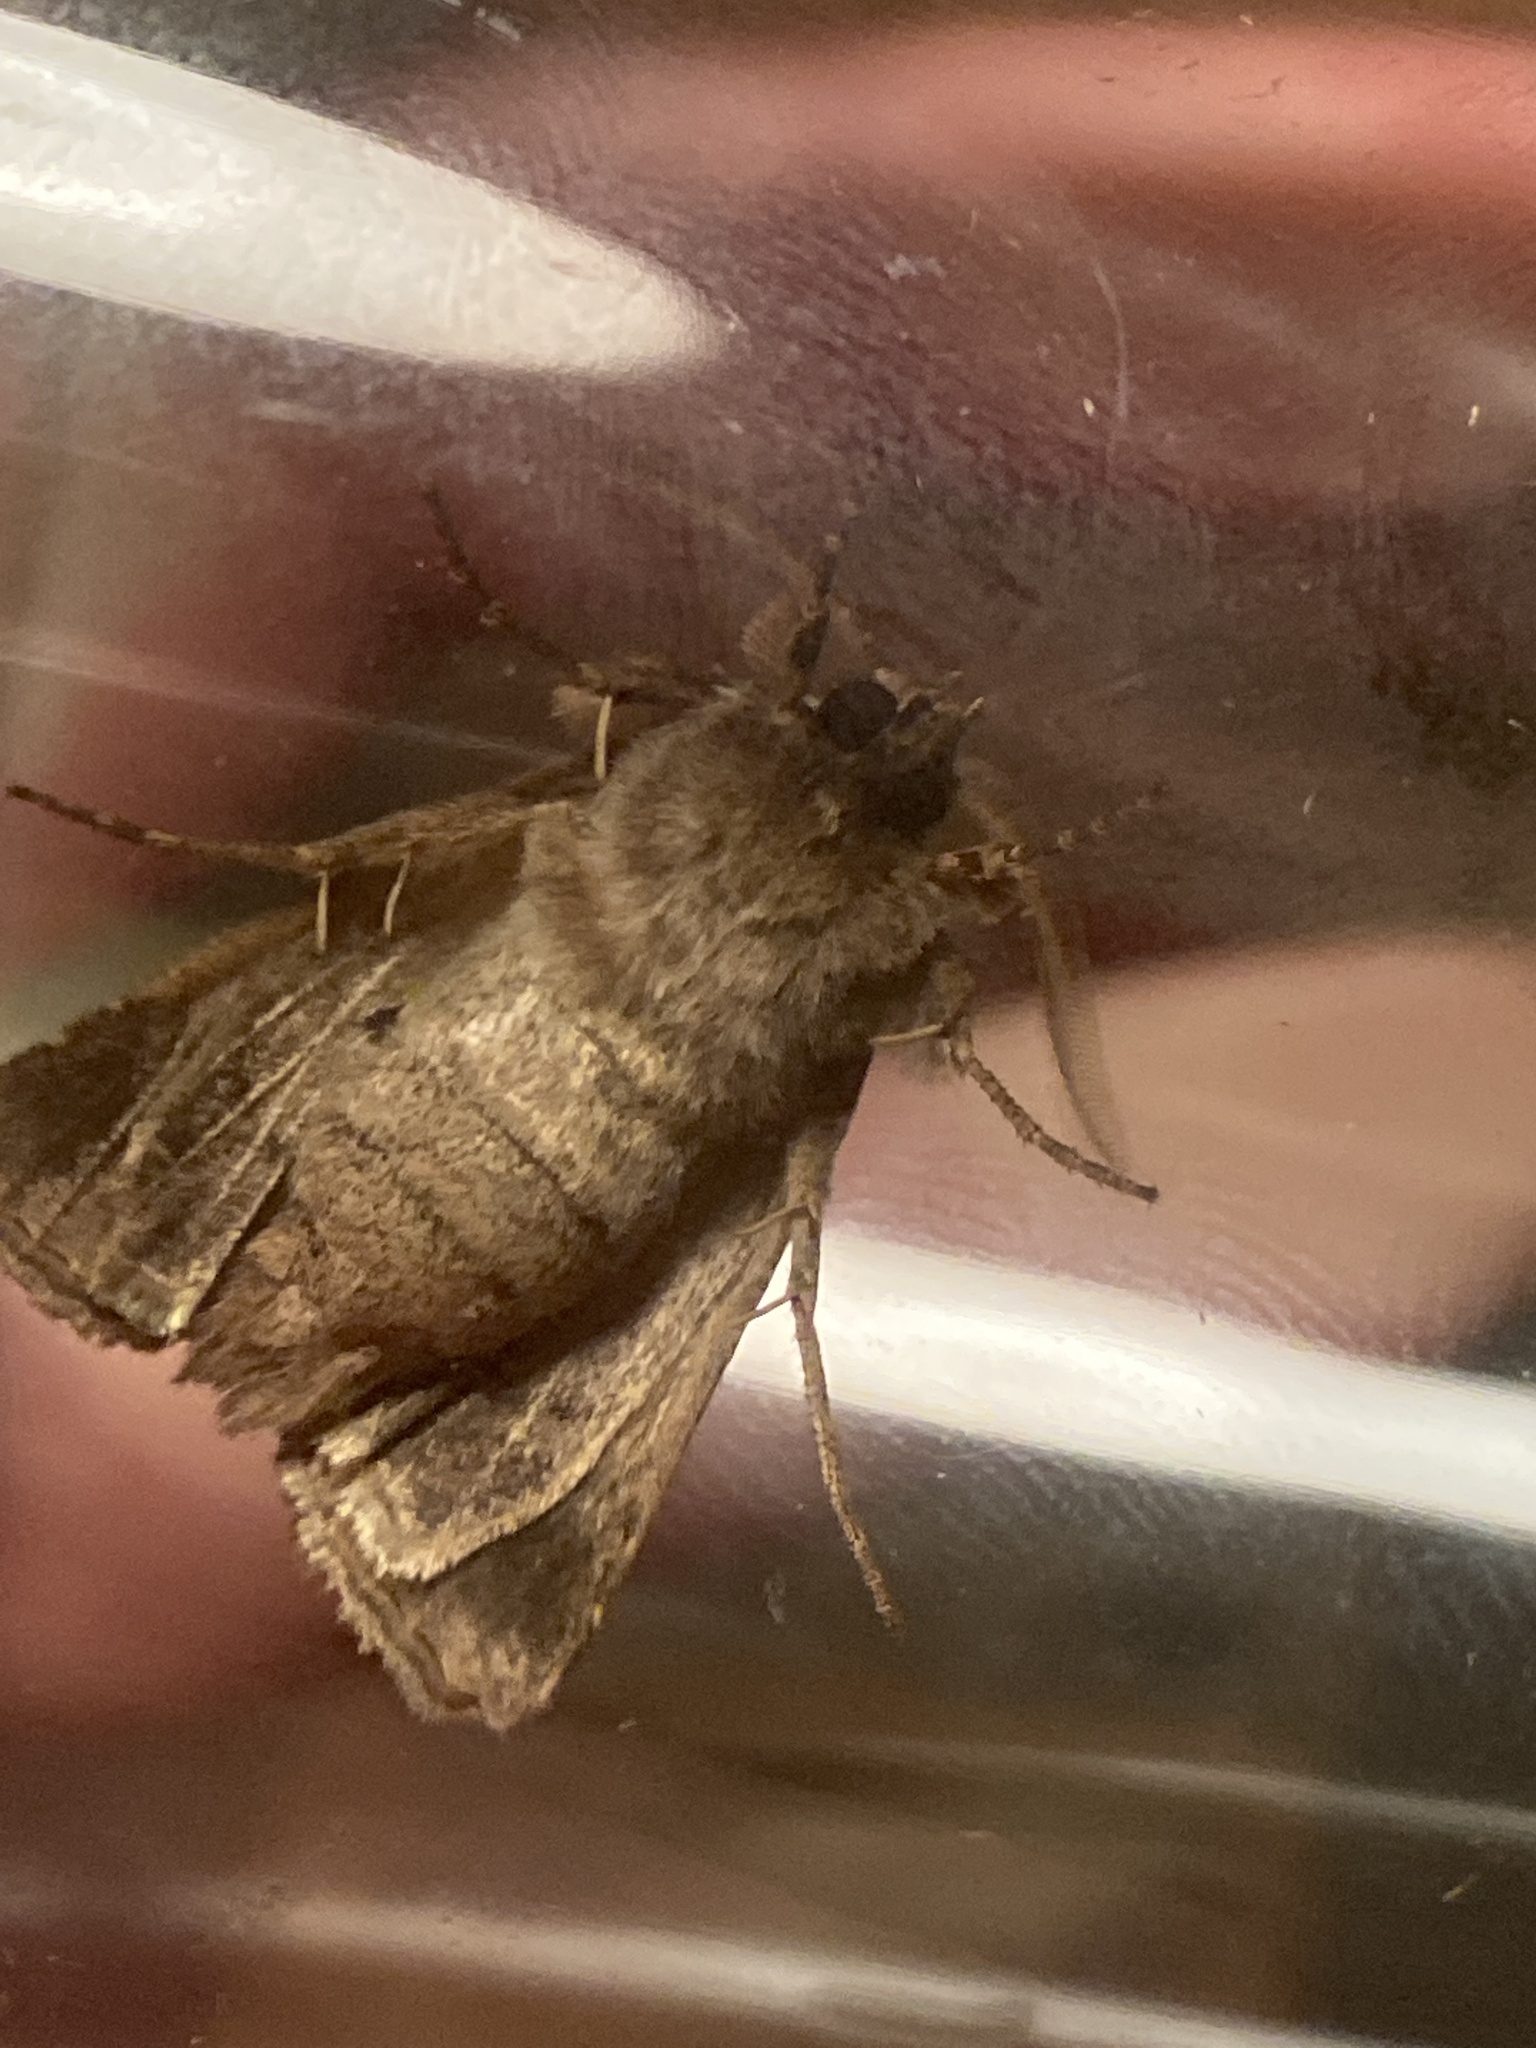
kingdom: Animalia
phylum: Arthropoda
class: Insecta
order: Lepidoptera
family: Noctuidae
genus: Tholera
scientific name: Tholera decimalis
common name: Feathered gothic
